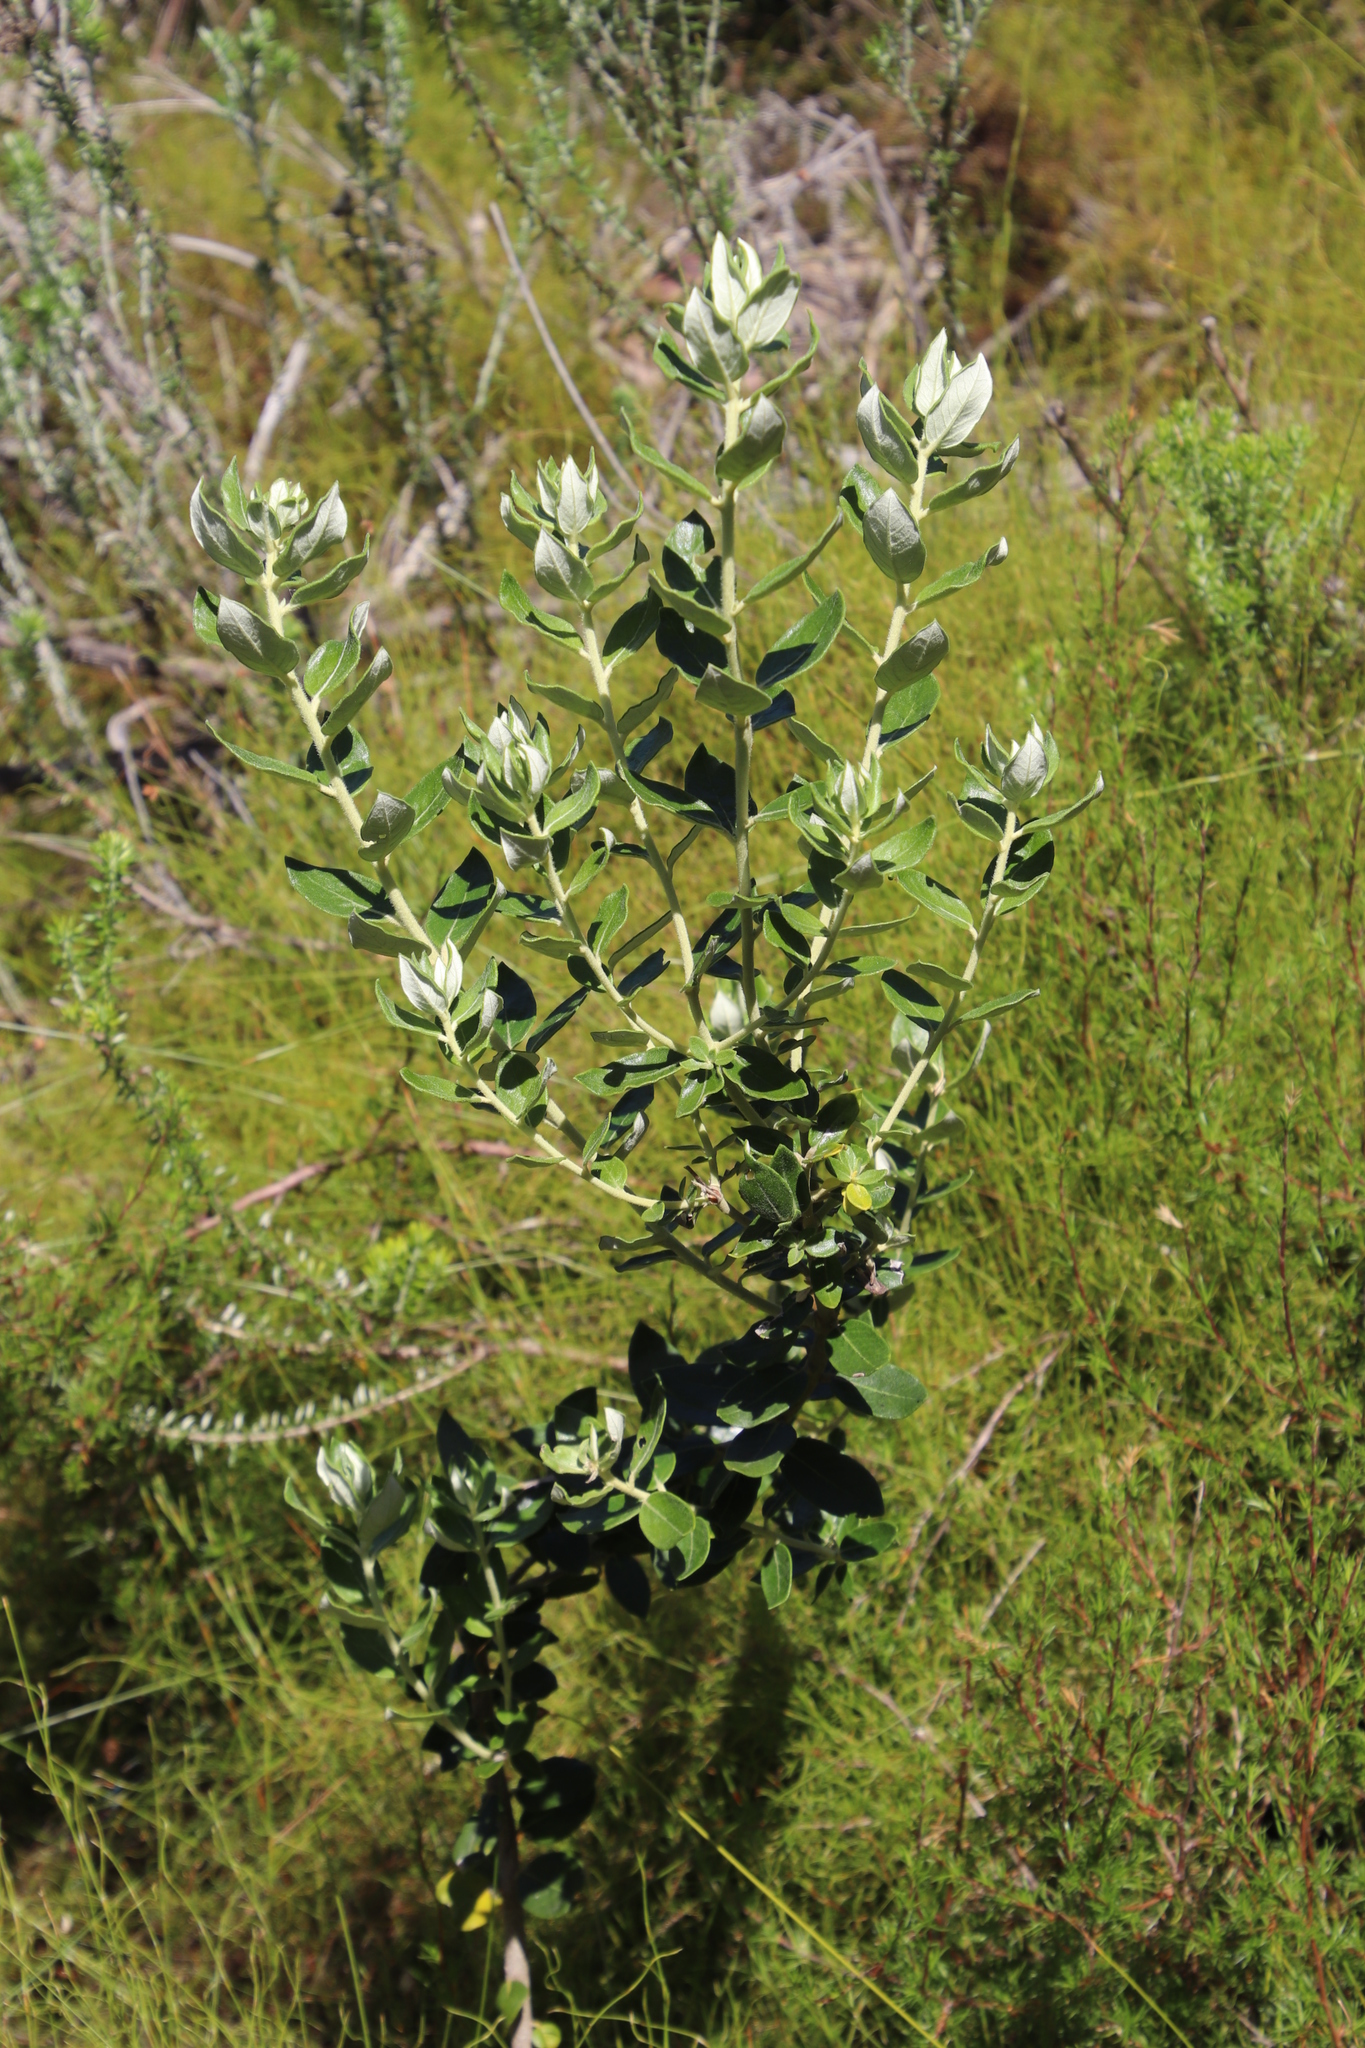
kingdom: Plantae
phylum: Tracheophyta
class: Magnoliopsida
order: Rosales
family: Rhamnaceae
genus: Phylica
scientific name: Phylica buxifolia
